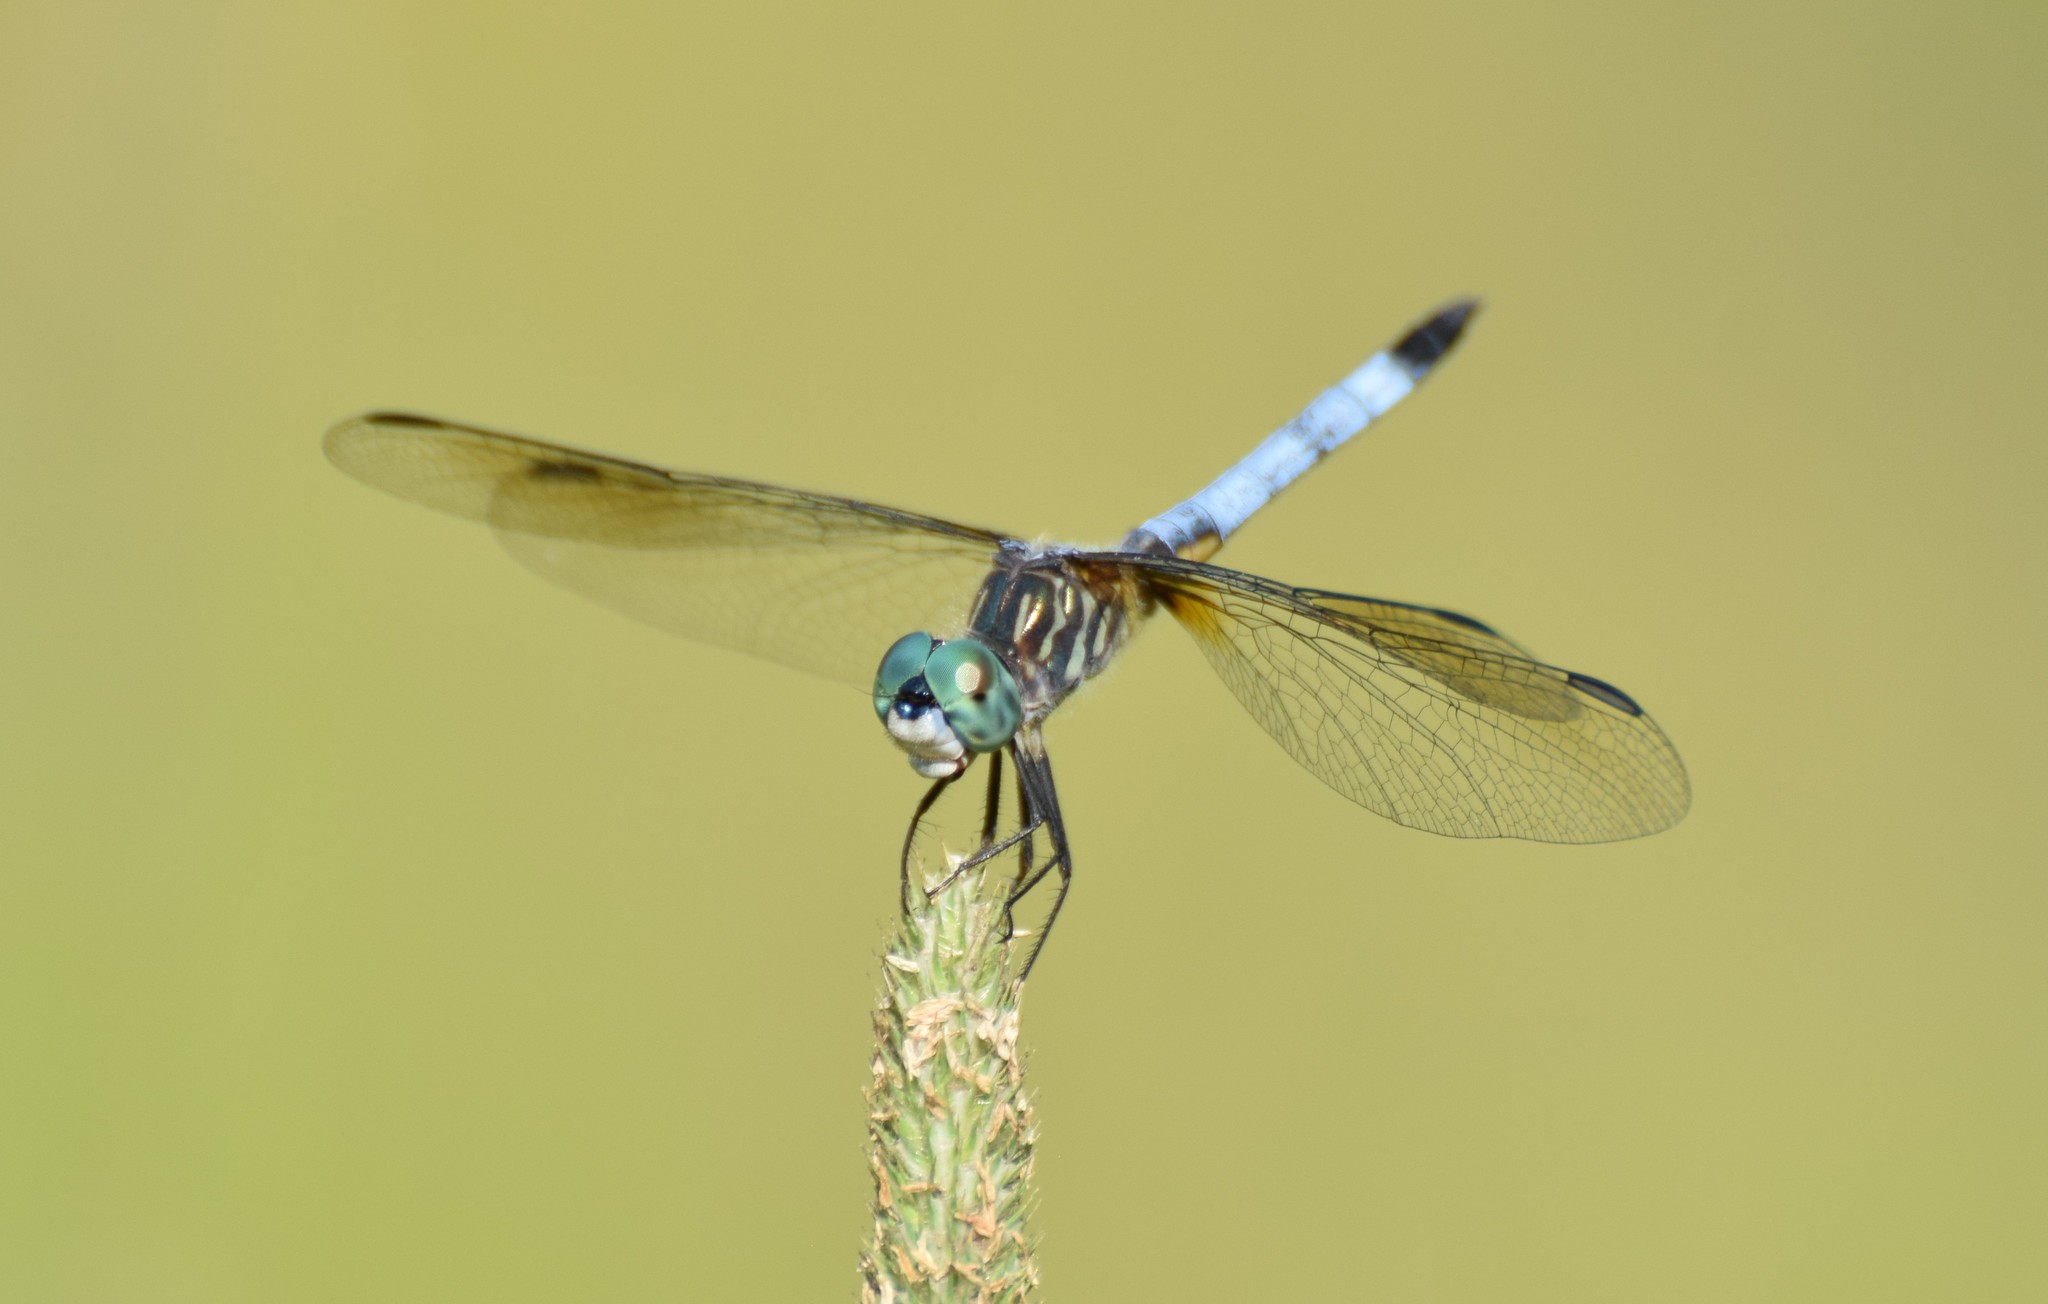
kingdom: Animalia
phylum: Arthropoda
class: Insecta
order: Odonata
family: Libellulidae
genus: Pachydiplax
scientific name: Pachydiplax longipennis
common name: Blue dasher
